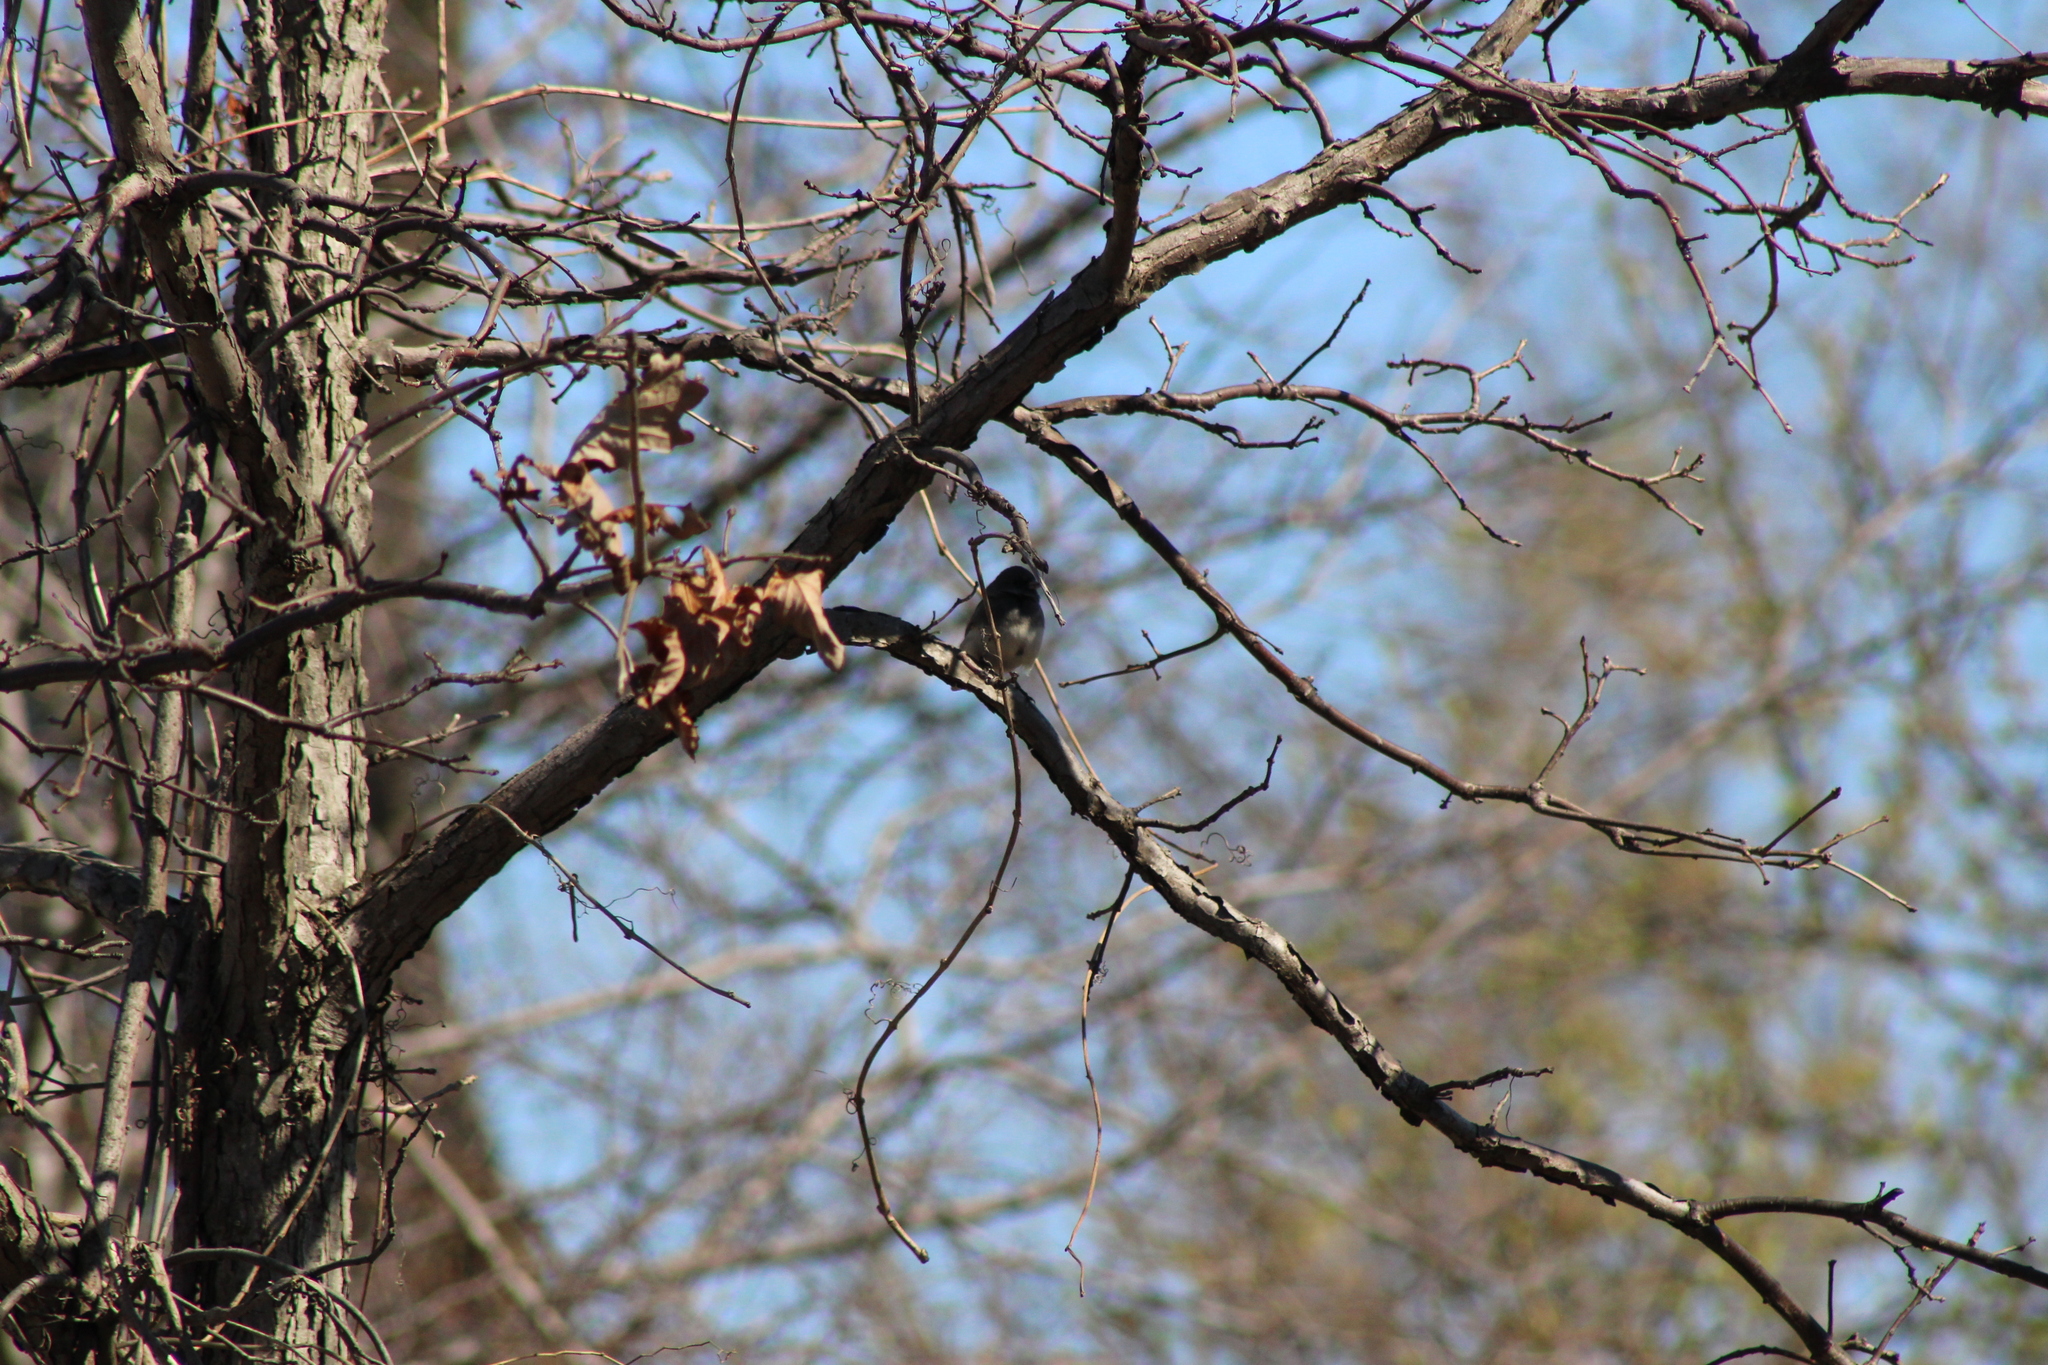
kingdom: Animalia
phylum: Chordata
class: Aves
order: Passeriformes
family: Passerellidae
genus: Junco
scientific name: Junco hyemalis
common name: Dark-eyed junco
